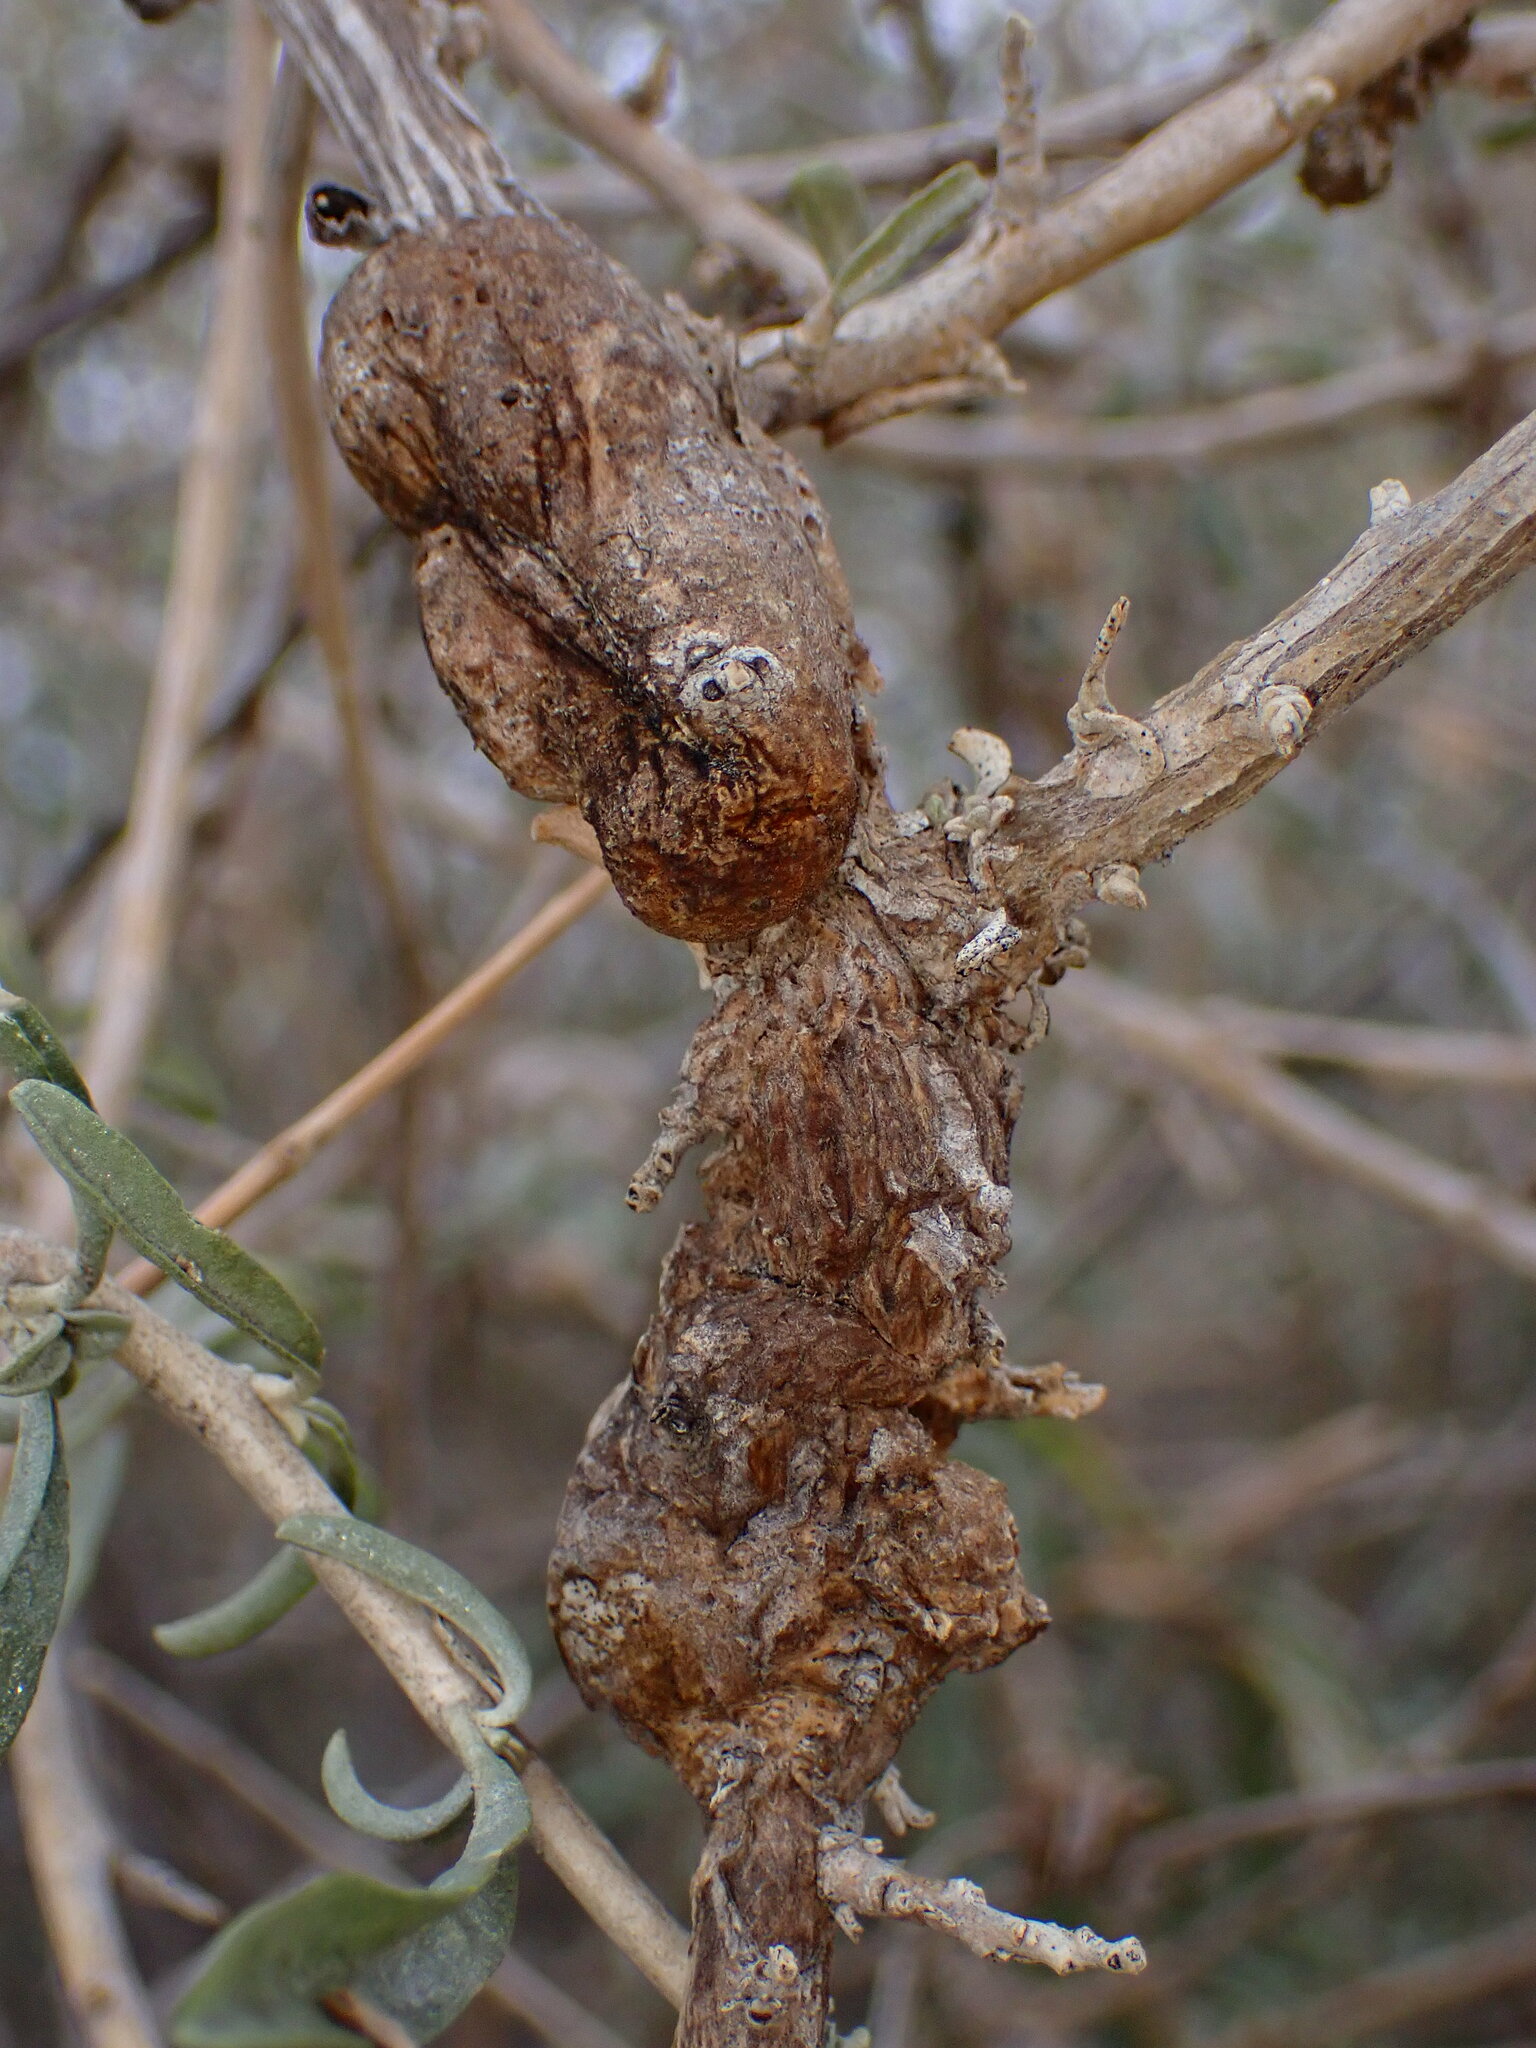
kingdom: Animalia
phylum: Arthropoda
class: Insecta
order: Diptera
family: Cecidomyiidae
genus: Asphondylia
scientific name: Asphondylia atriplicis
